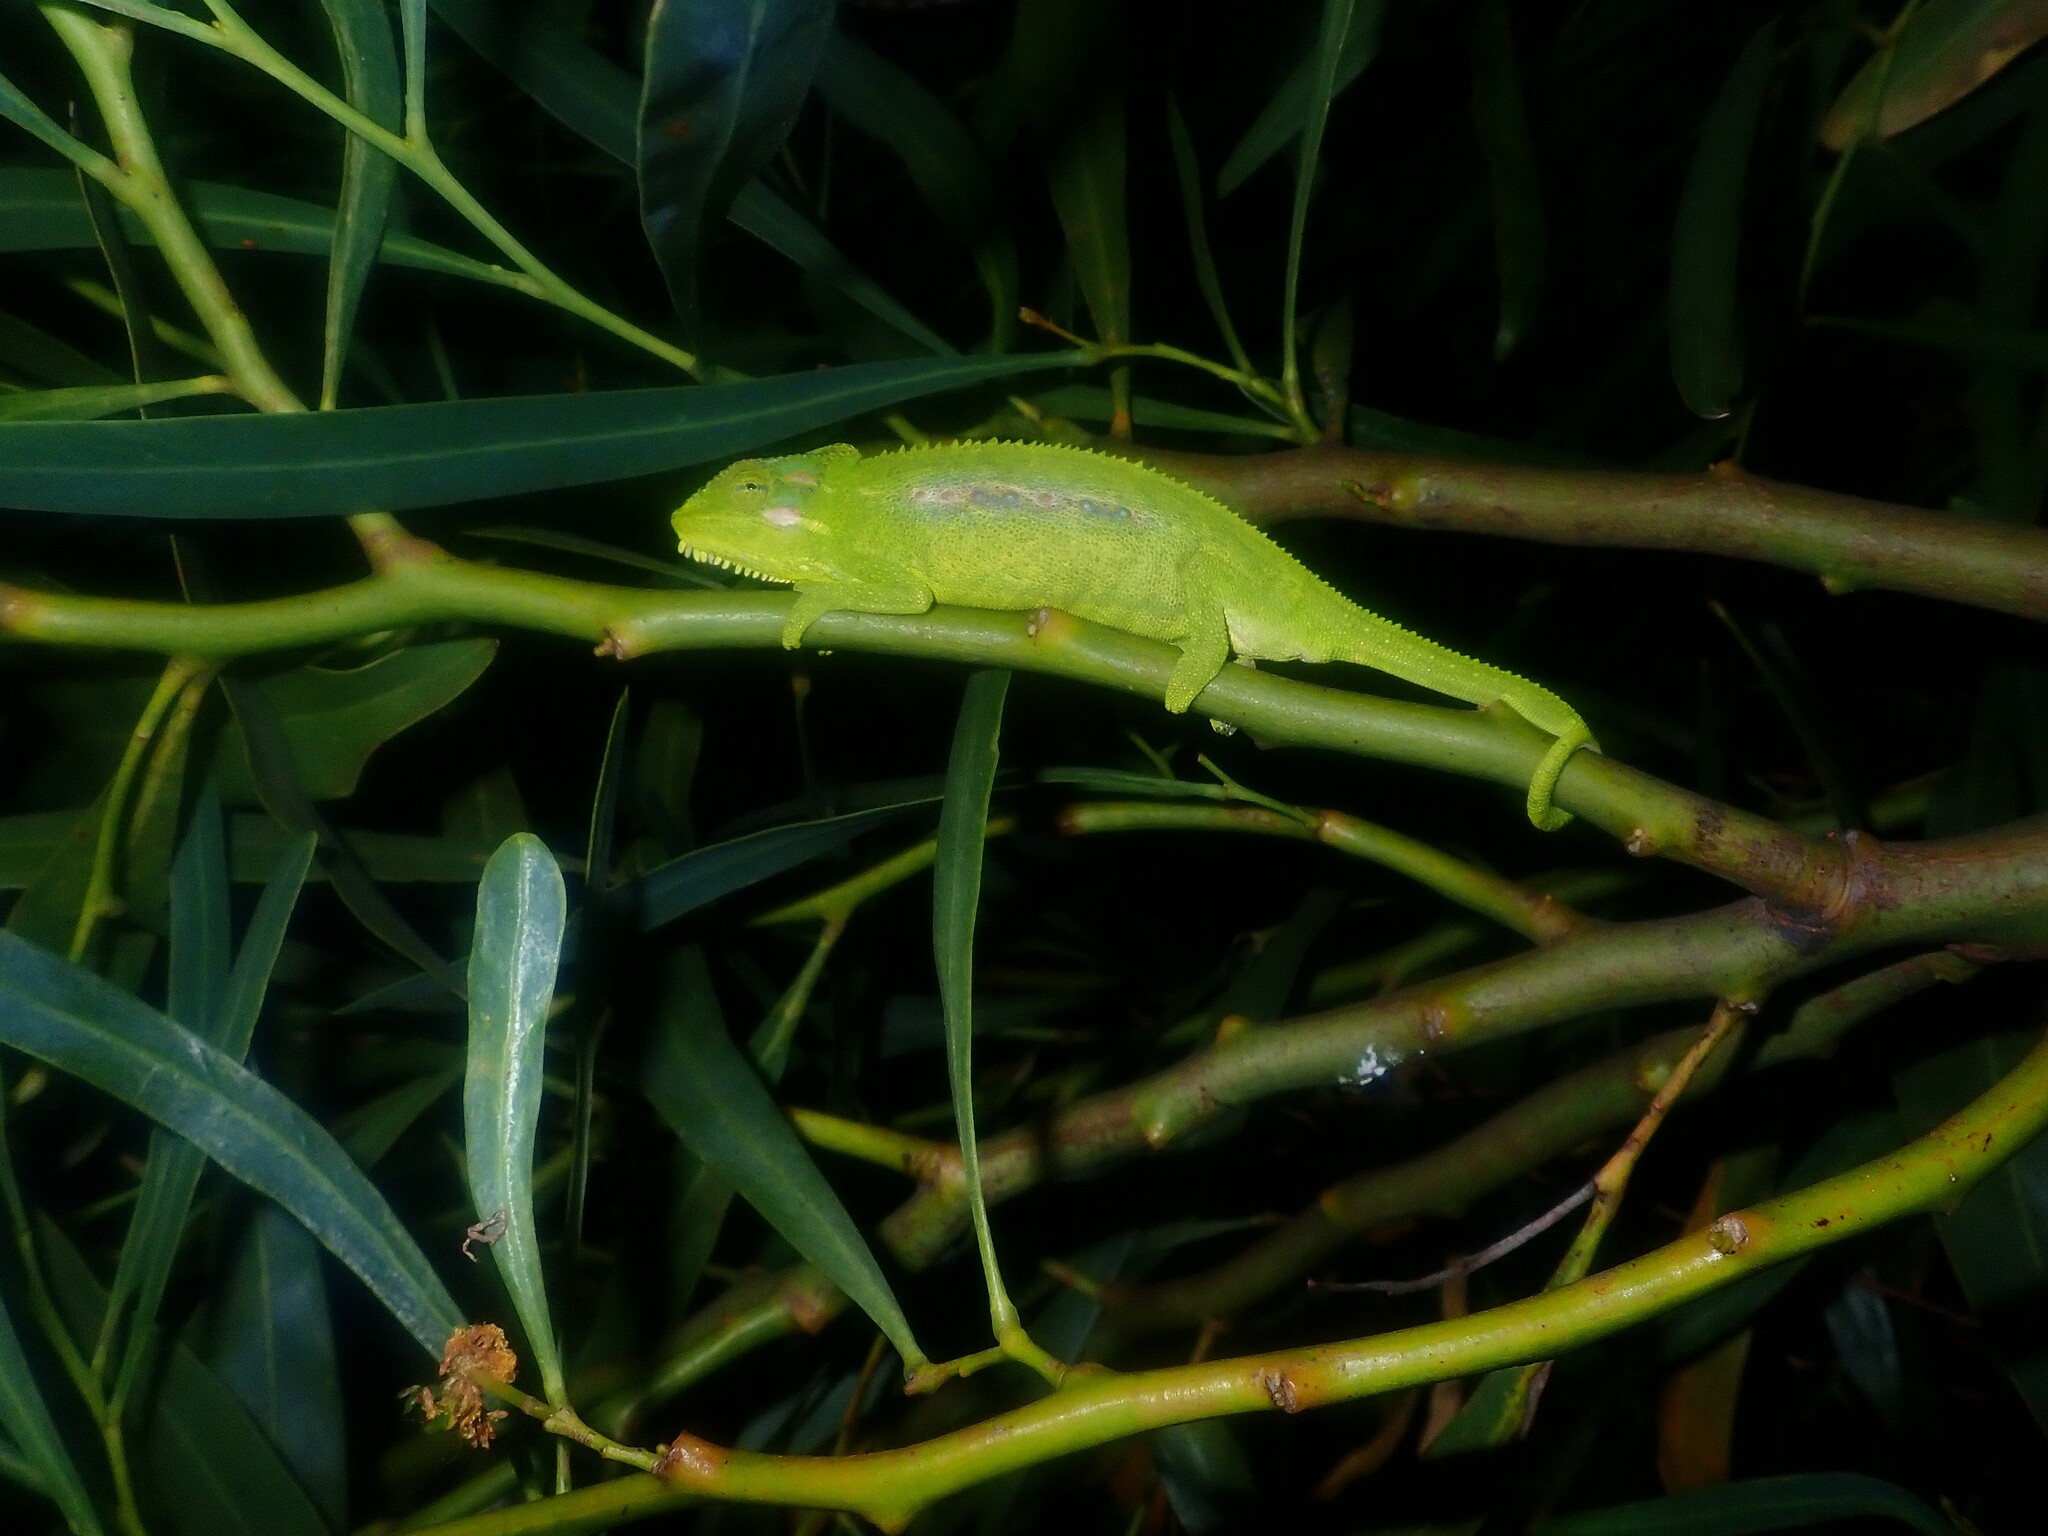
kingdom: Animalia
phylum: Chordata
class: Squamata
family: Chamaeleonidae
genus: Bradypodion
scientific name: Bradypodion pumilum
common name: Cape dwarf chameleon
